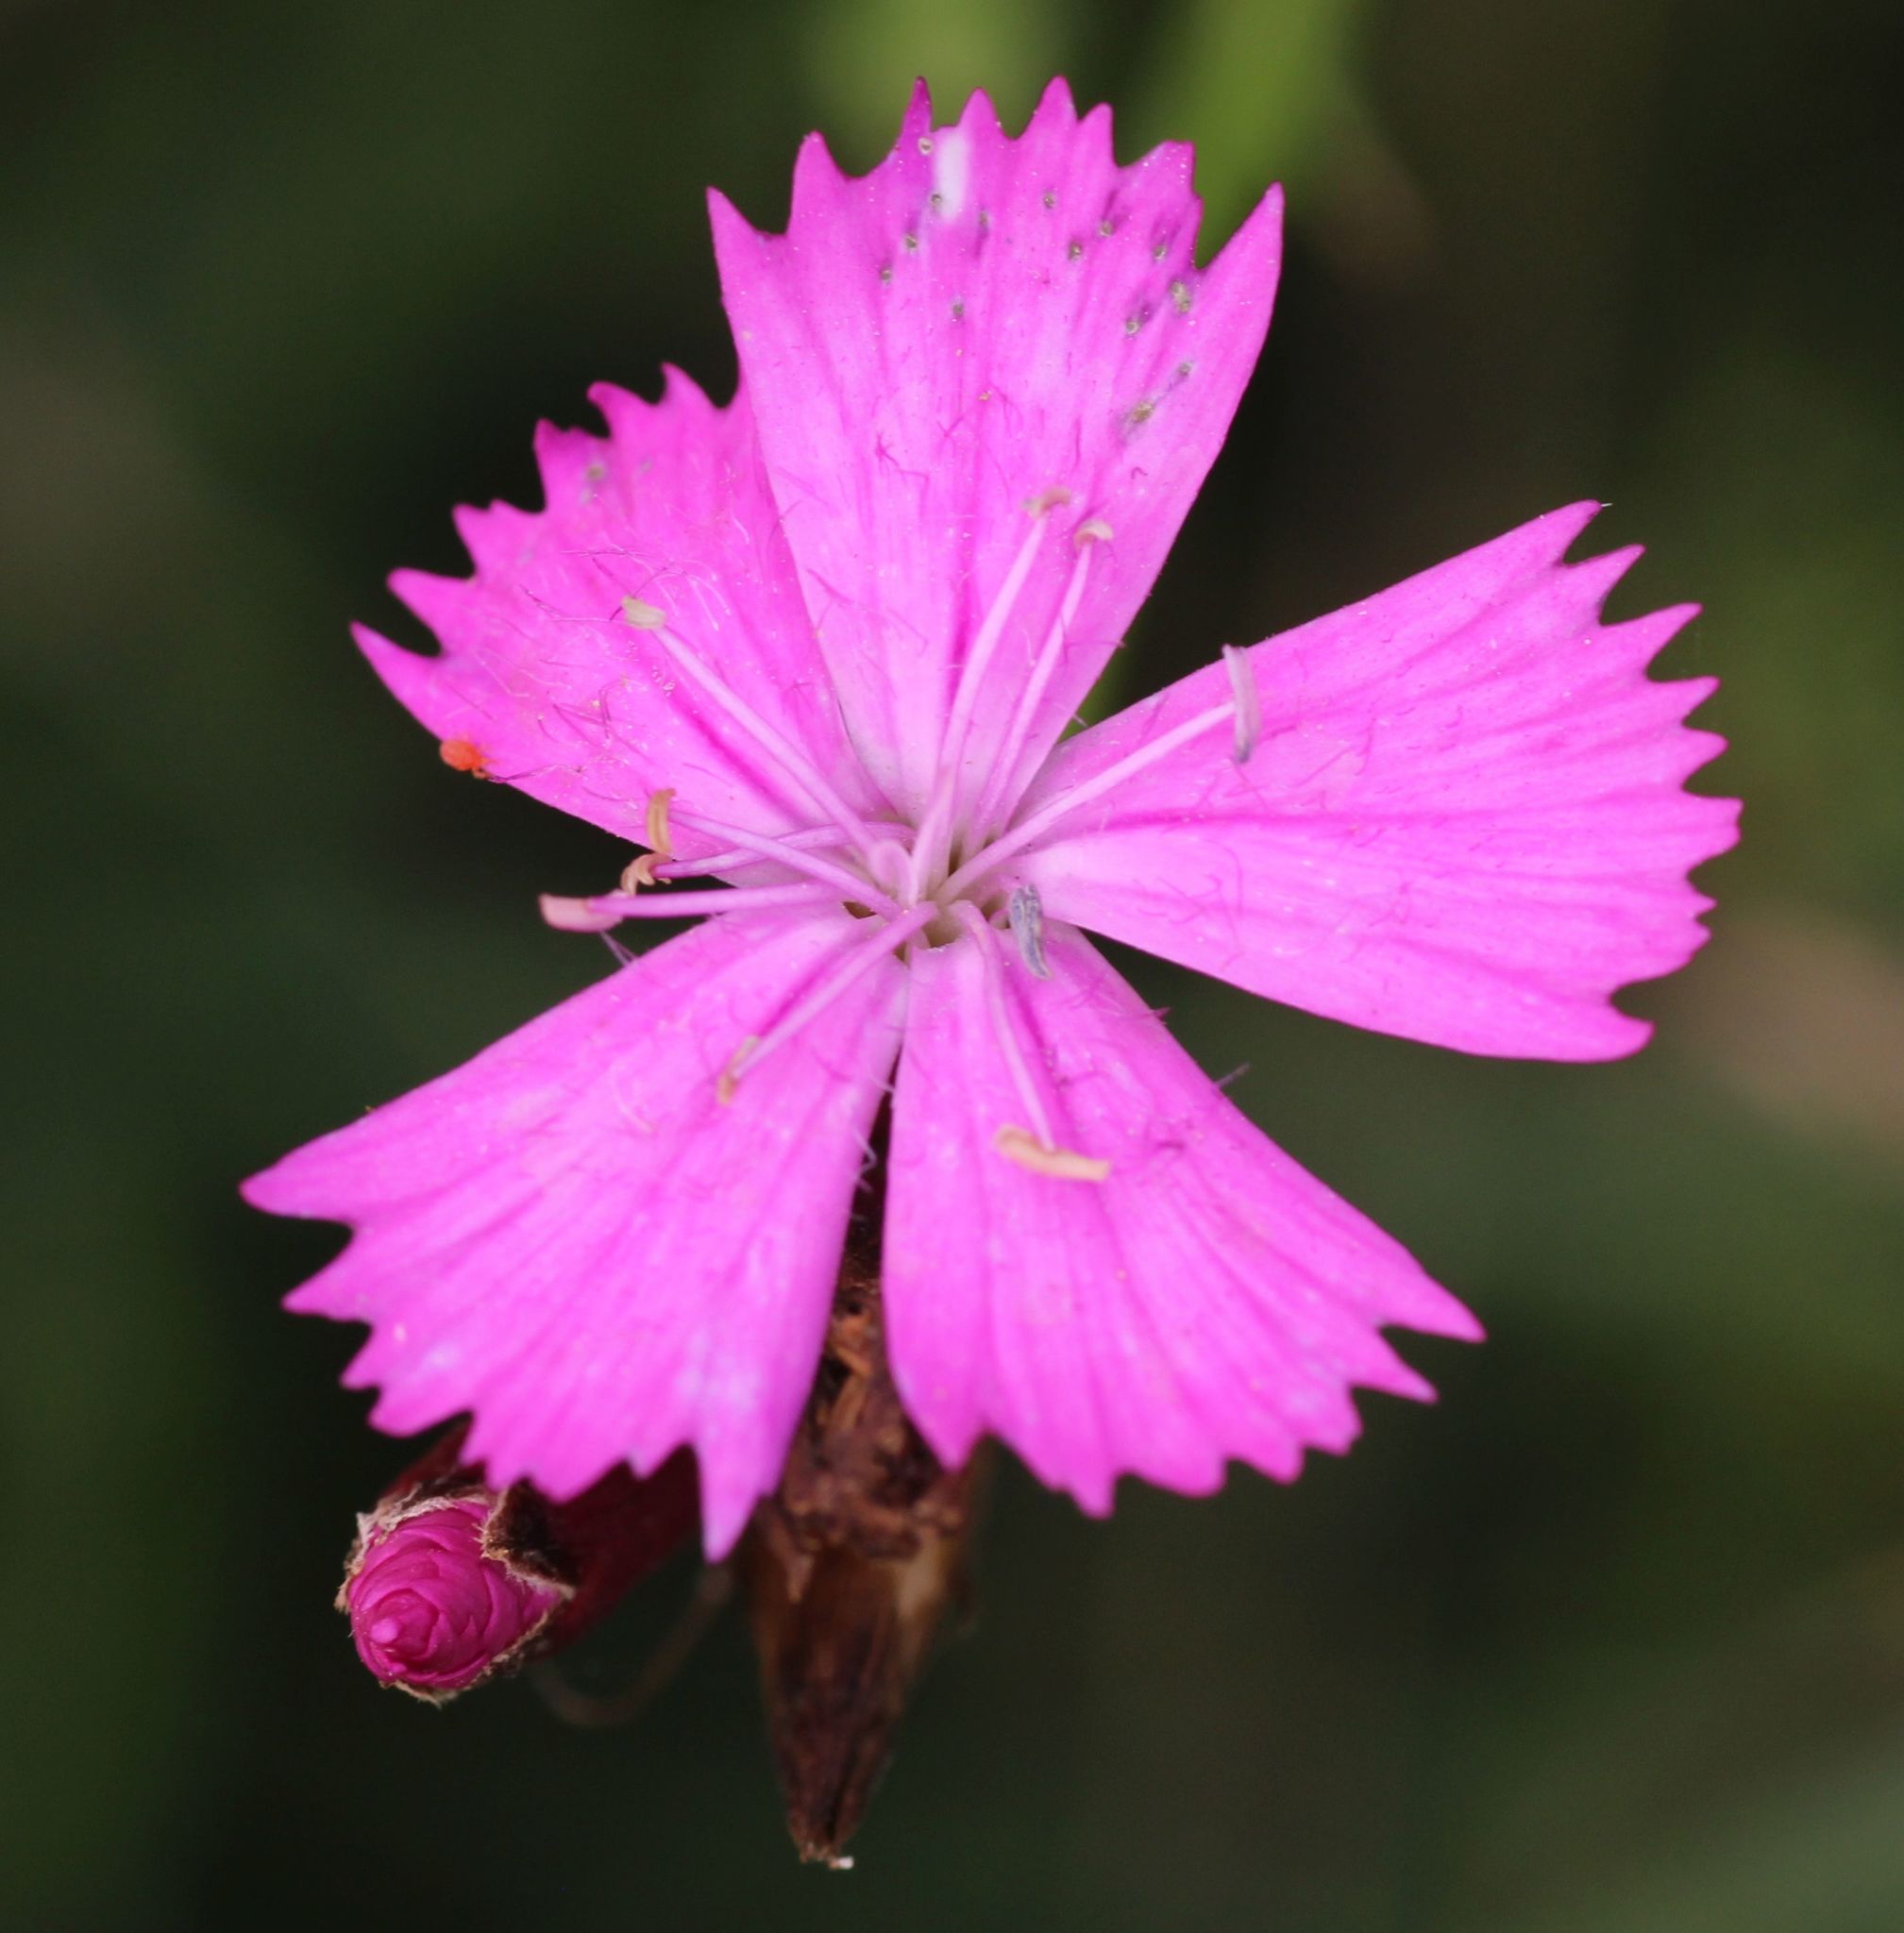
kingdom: Plantae
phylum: Tracheophyta
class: Magnoliopsida
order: Caryophyllales
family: Caryophyllaceae
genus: Dianthus
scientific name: Dianthus carthusianorum
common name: Carthusian pink
